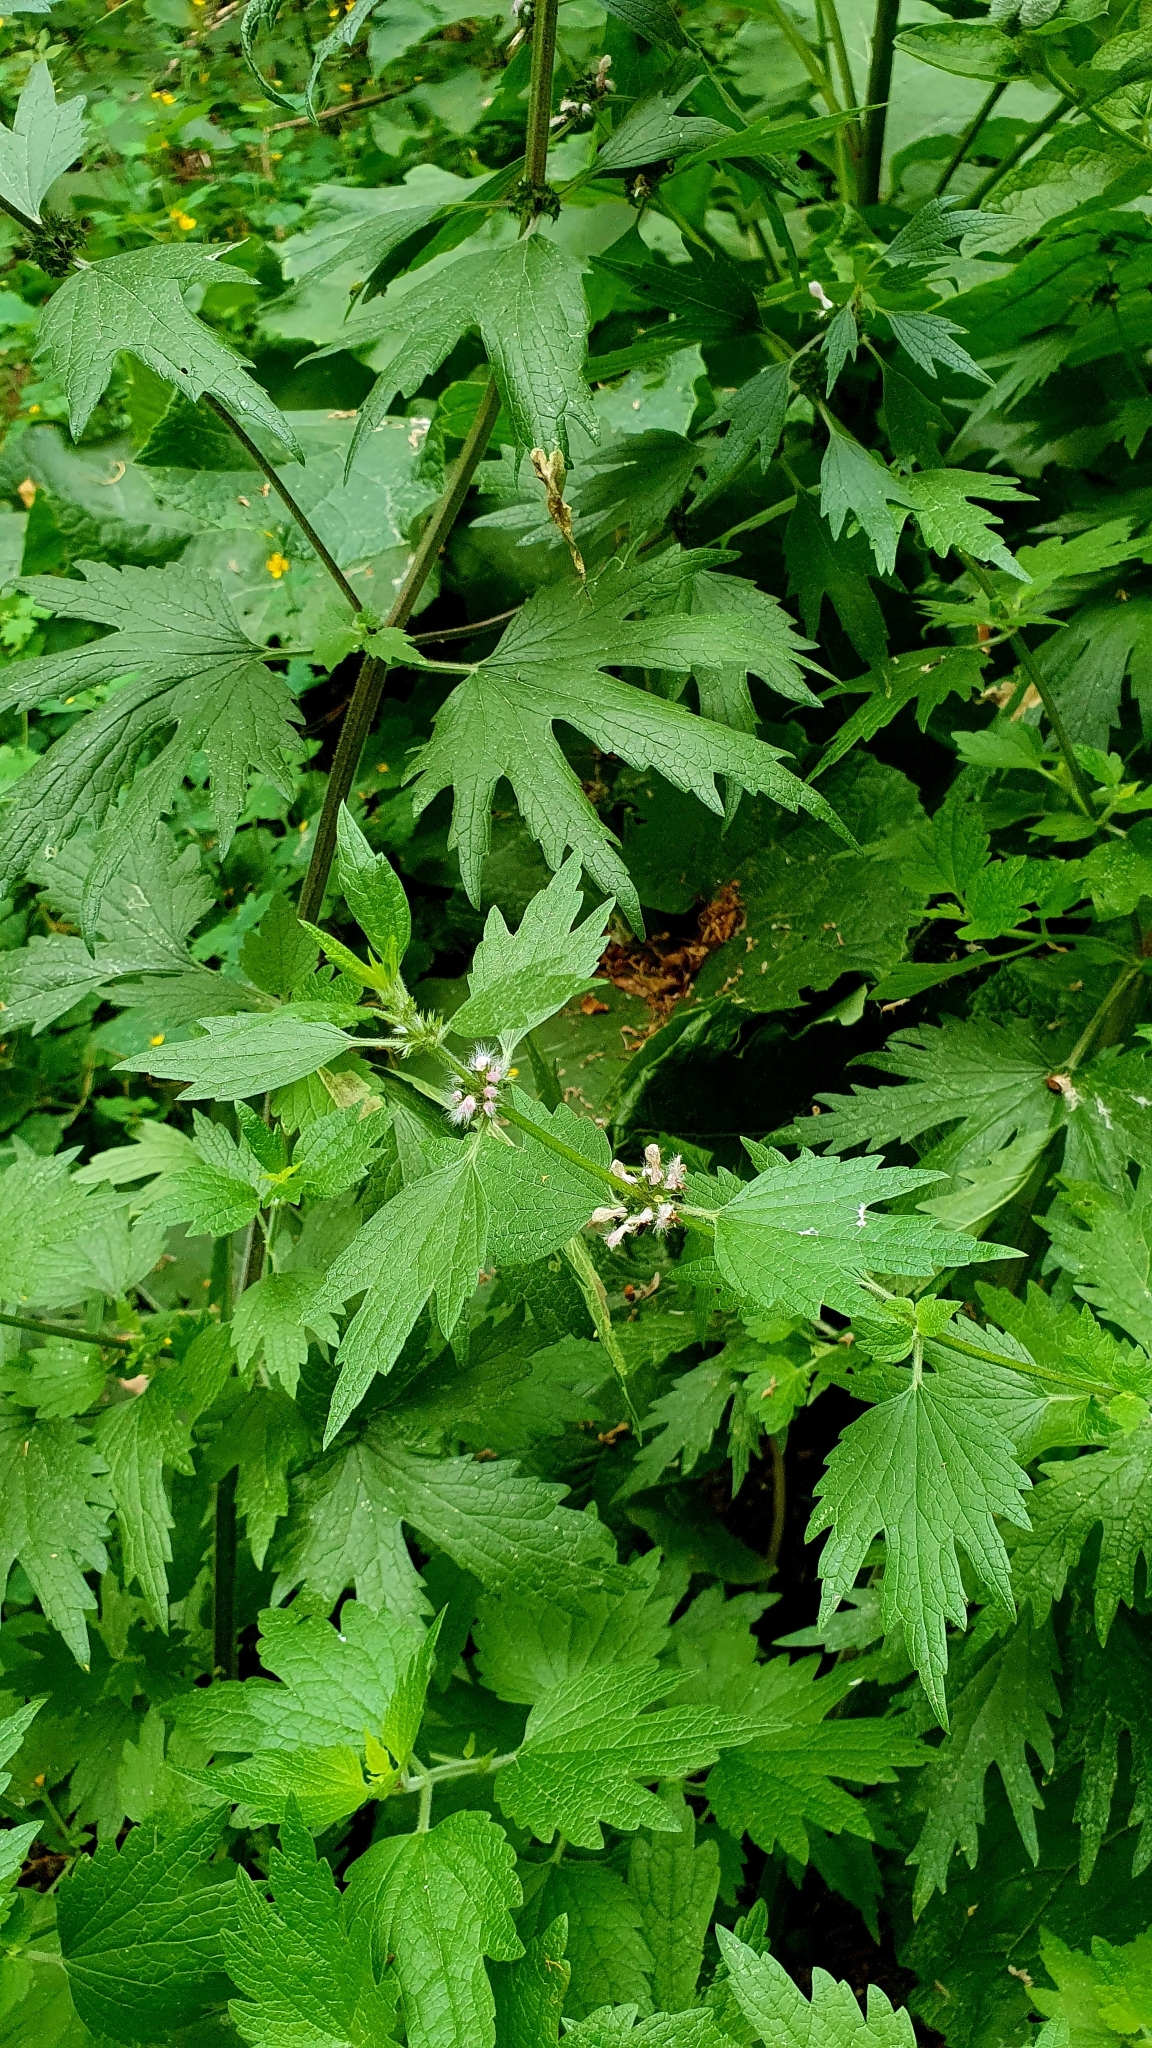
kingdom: Plantae
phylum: Tracheophyta
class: Magnoliopsida
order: Lamiales
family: Lamiaceae
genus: Leonurus
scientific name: Leonurus quinquelobatus
